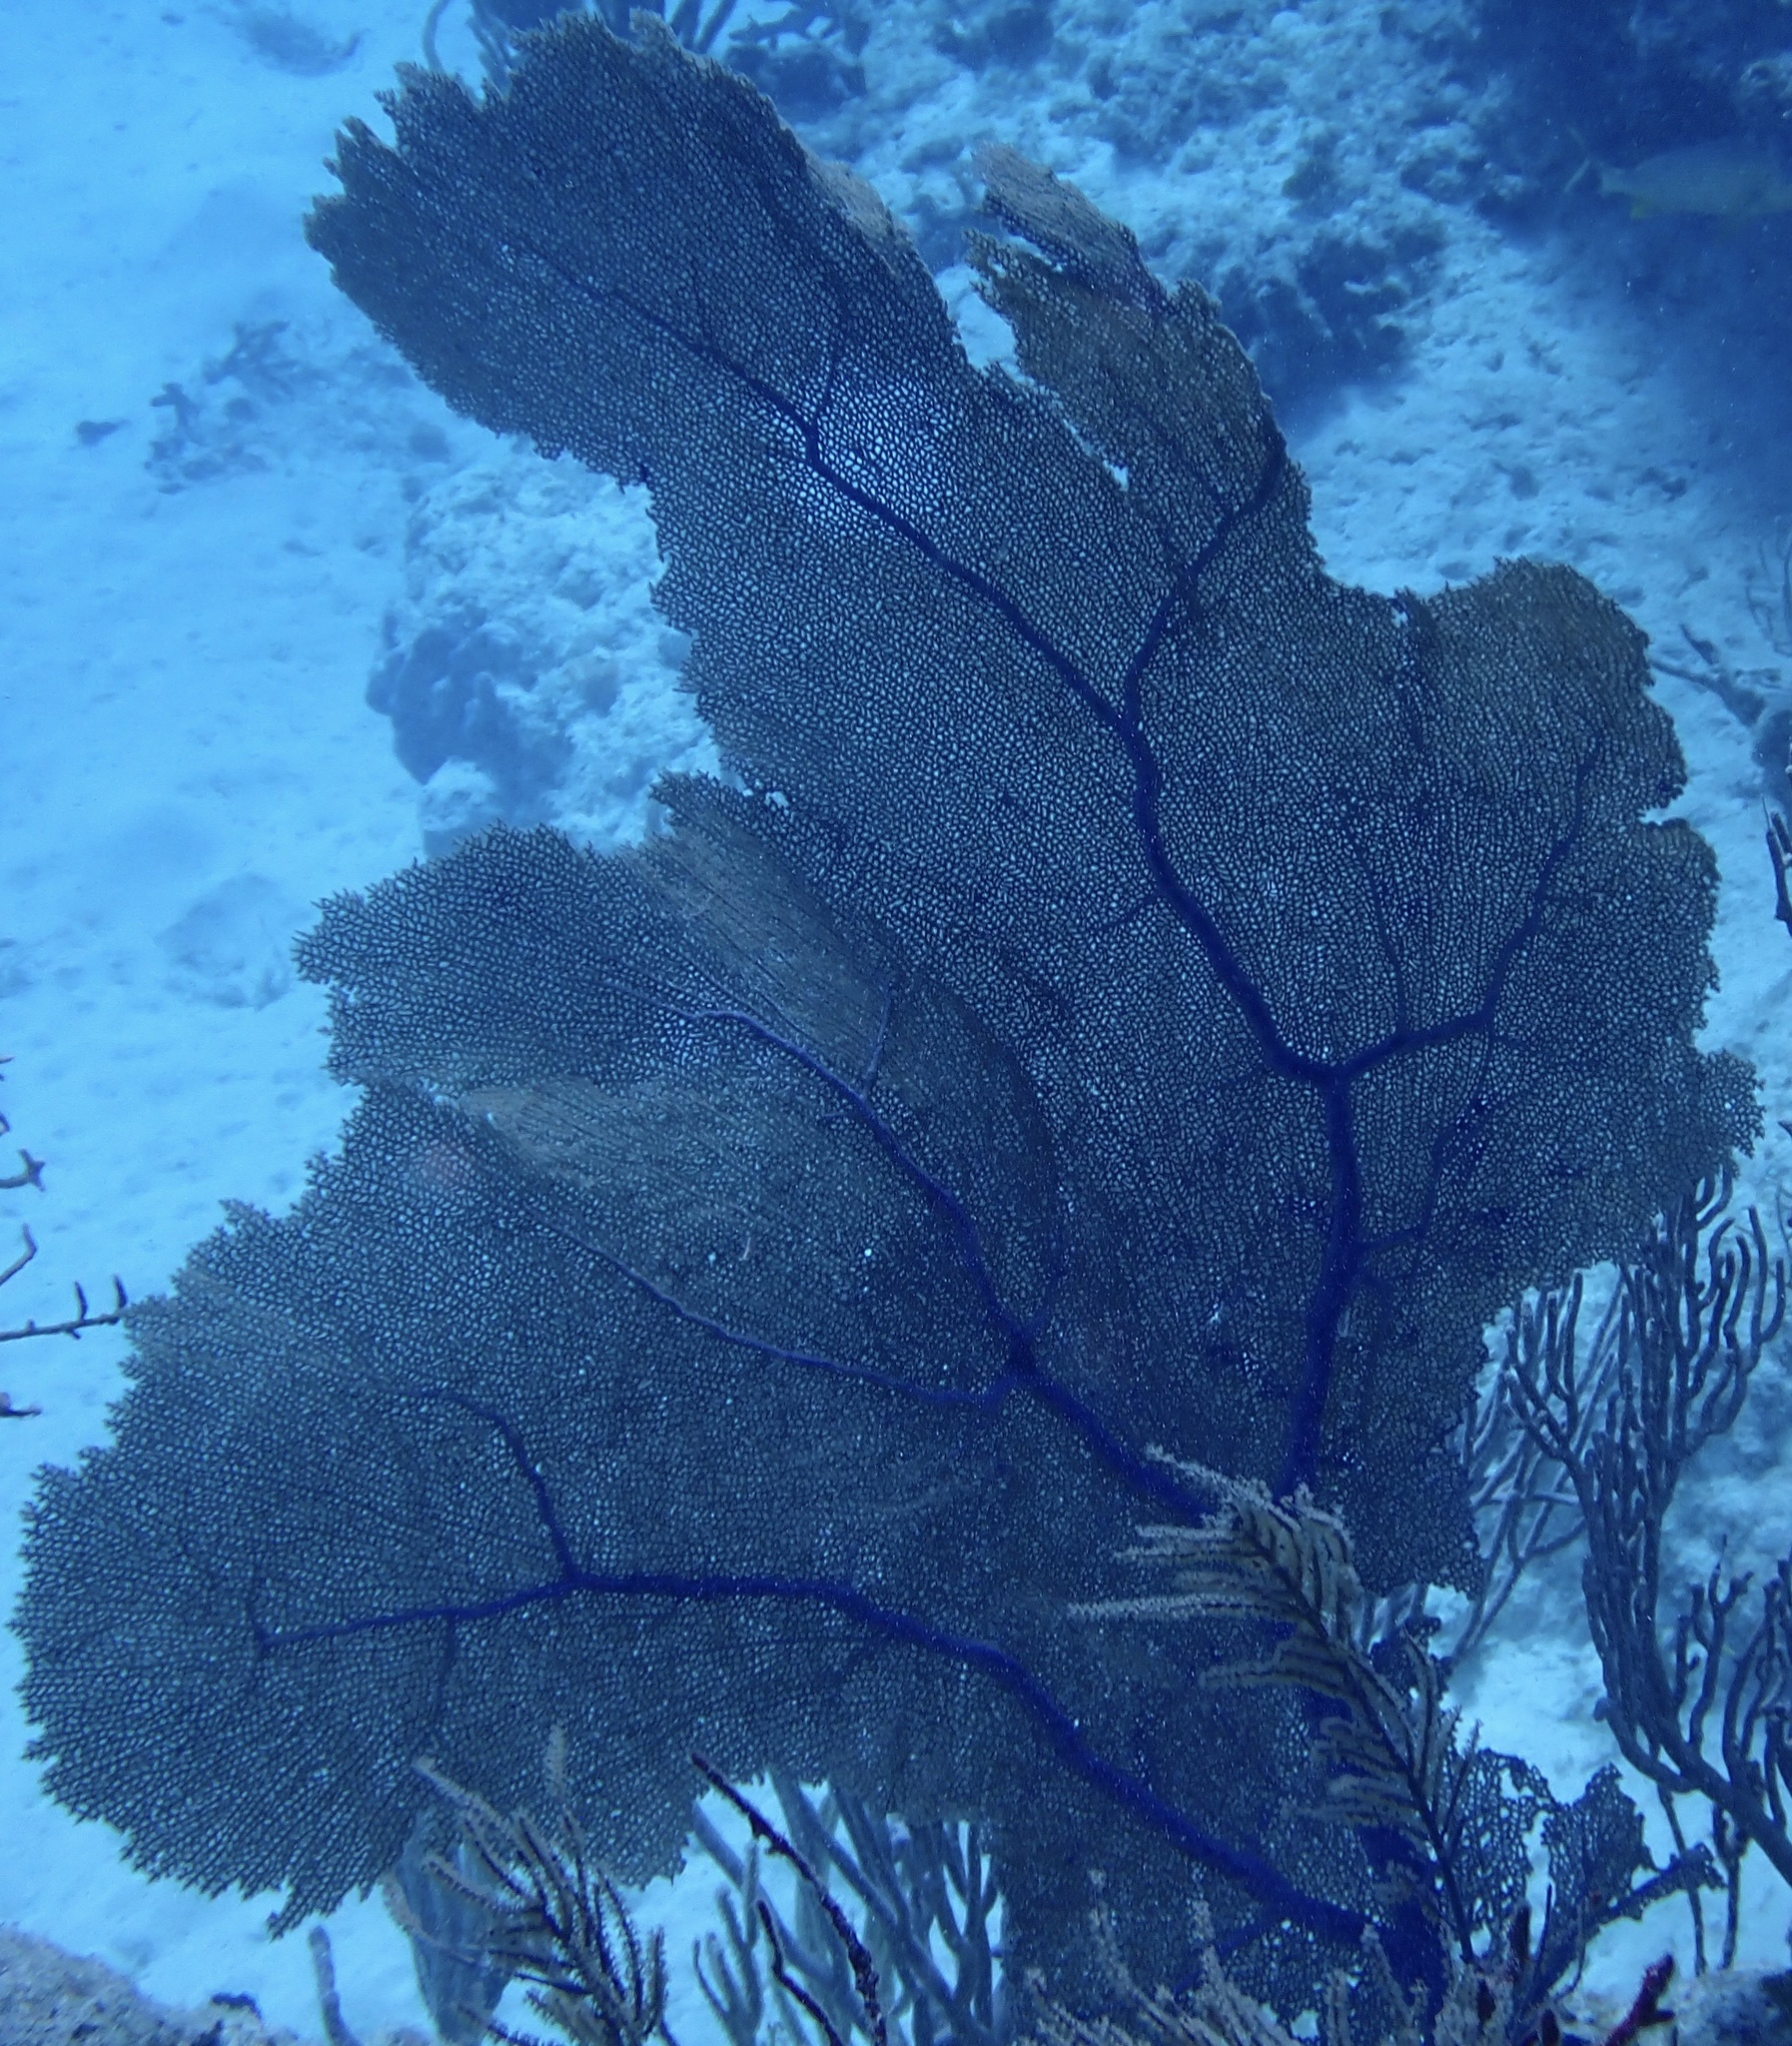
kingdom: Animalia
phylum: Cnidaria
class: Anthozoa
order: Malacalcyonacea
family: Gorgoniidae
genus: Gorgonia
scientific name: Gorgonia ventalina
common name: Common sea fan
